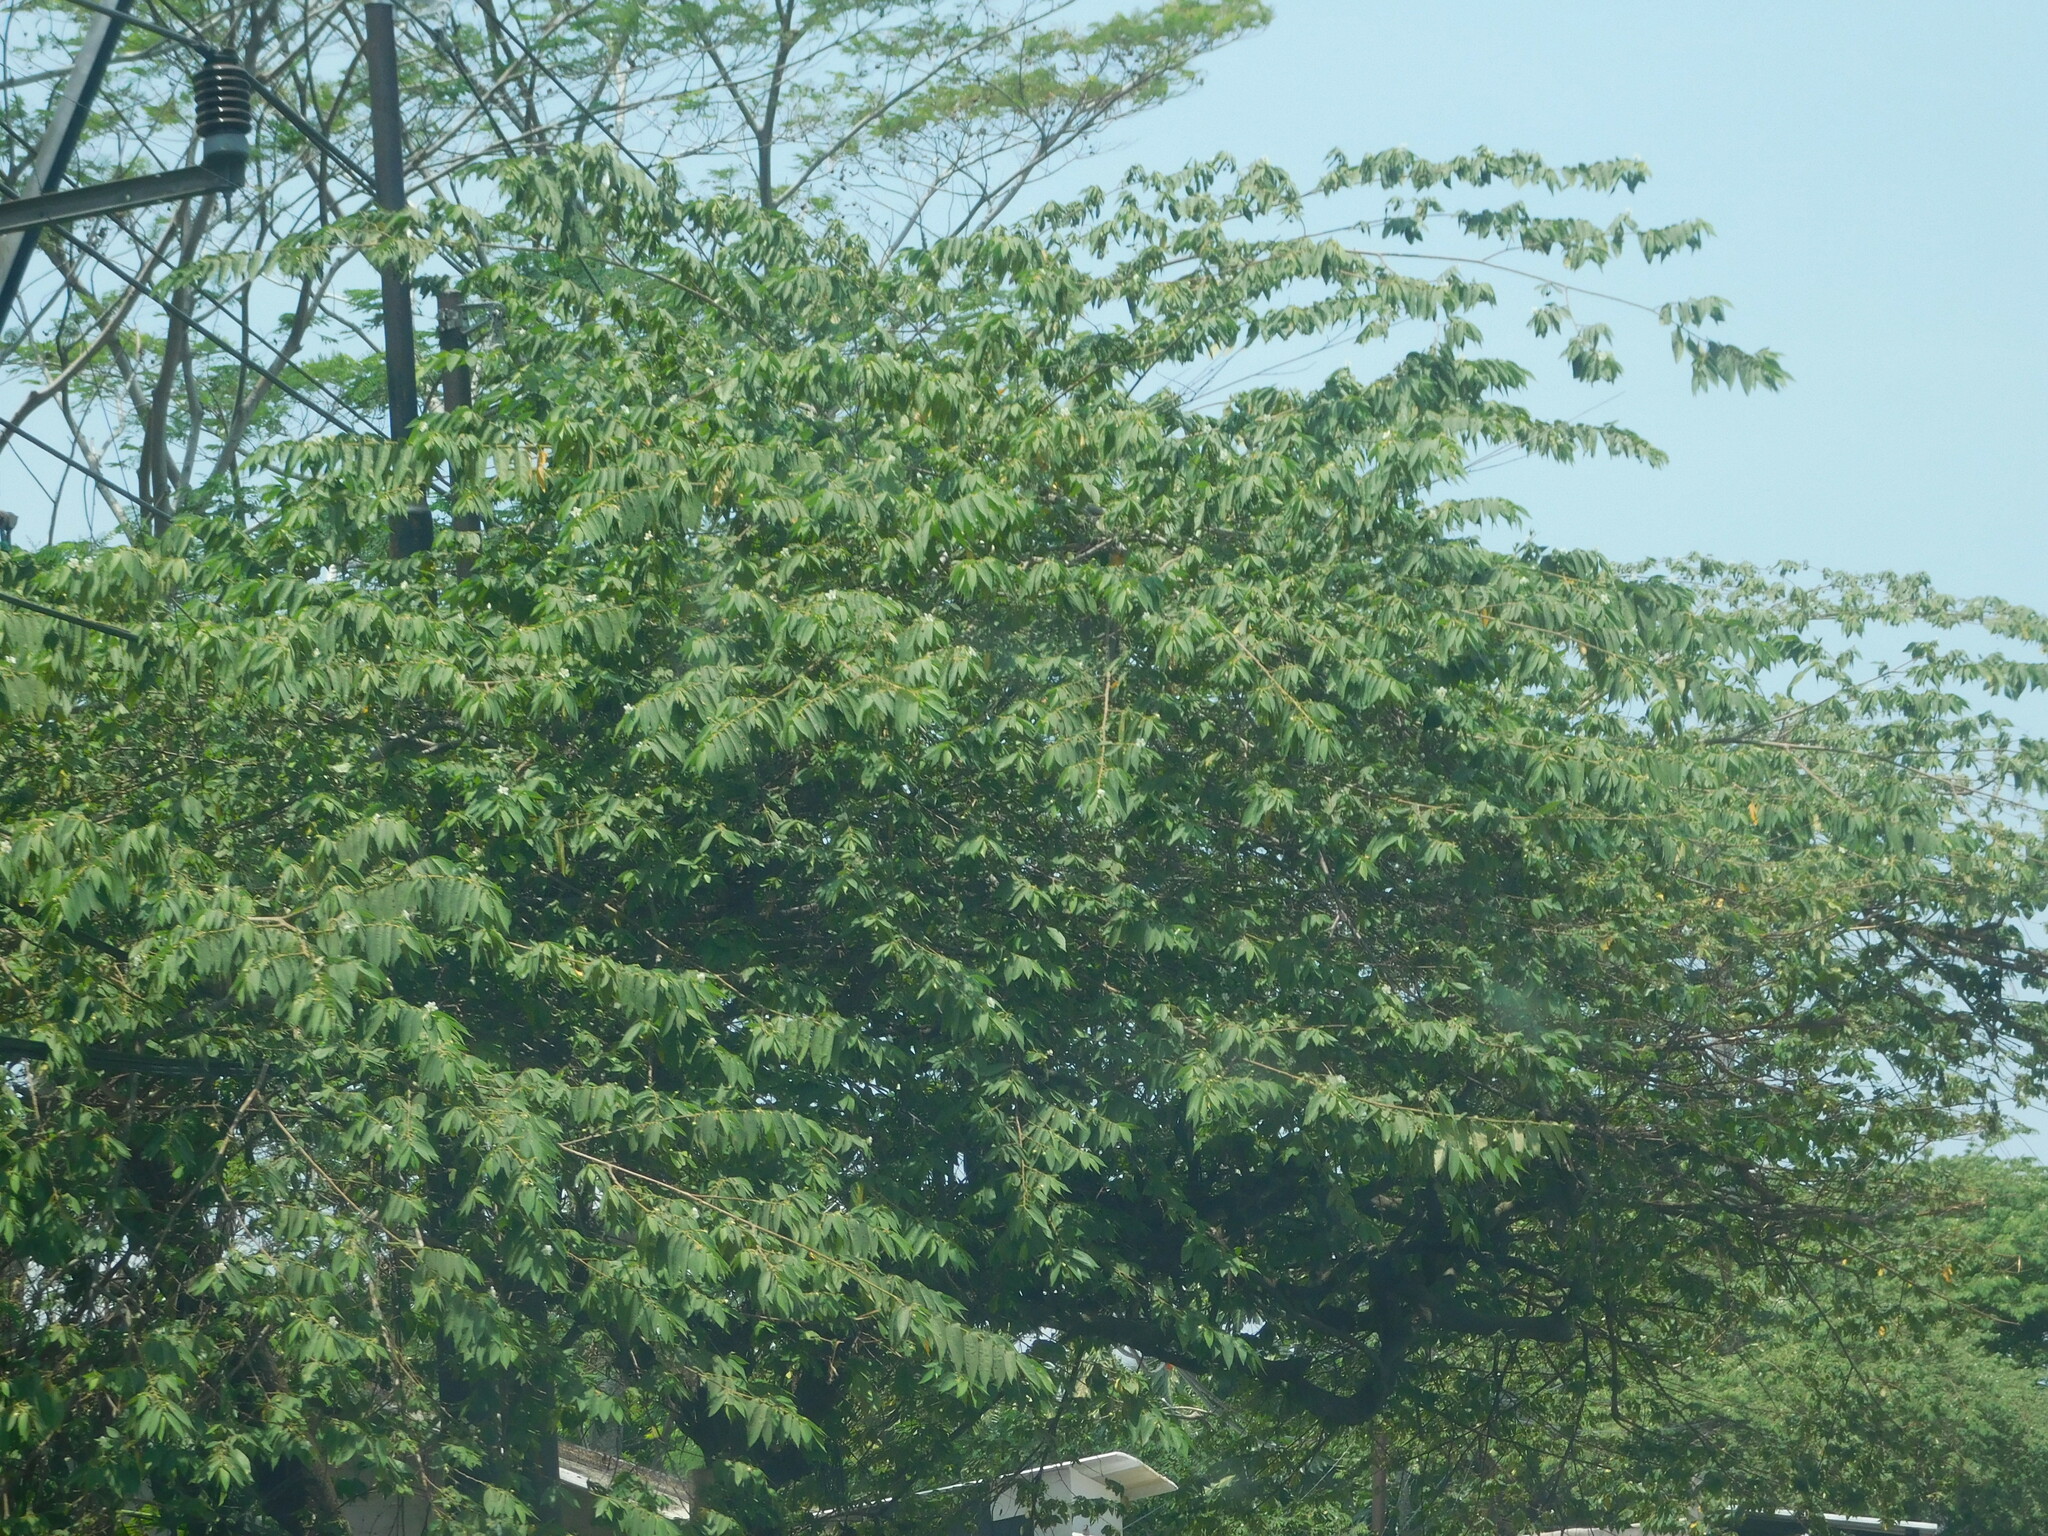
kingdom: Plantae
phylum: Tracheophyta
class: Magnoliopsida
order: Malvales
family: Muntingiaceae
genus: Muntingia
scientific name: Muntingia calabura
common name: Strawberrytree
